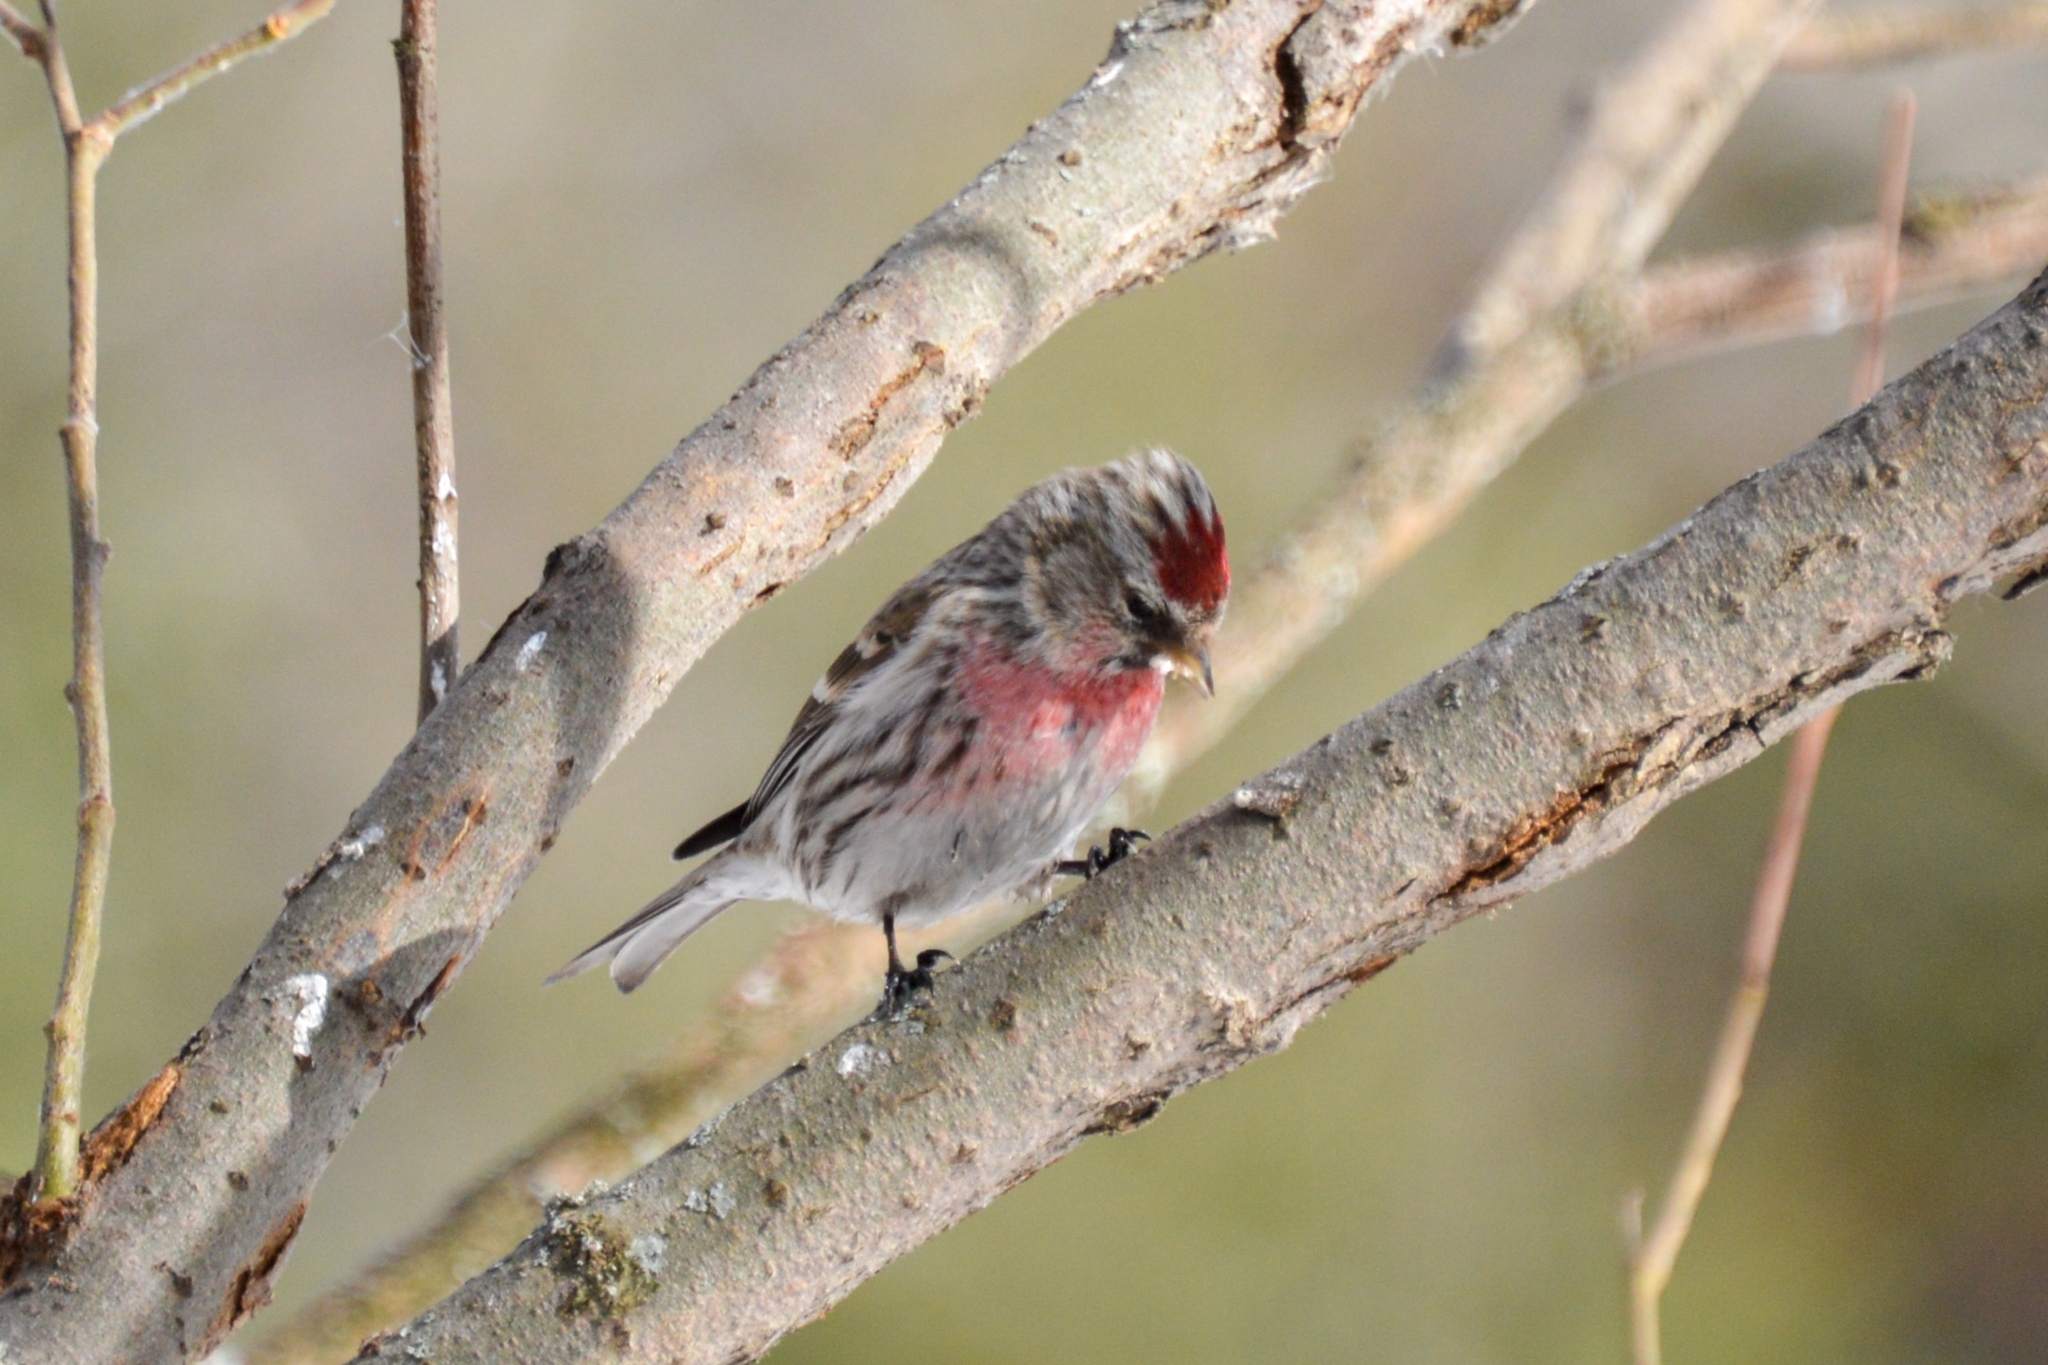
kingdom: Animalia
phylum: Chordata
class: Aves
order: Passeriformes
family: Fringillidae
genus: Acanthis
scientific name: Acanthis flammea
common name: Common redpoll
